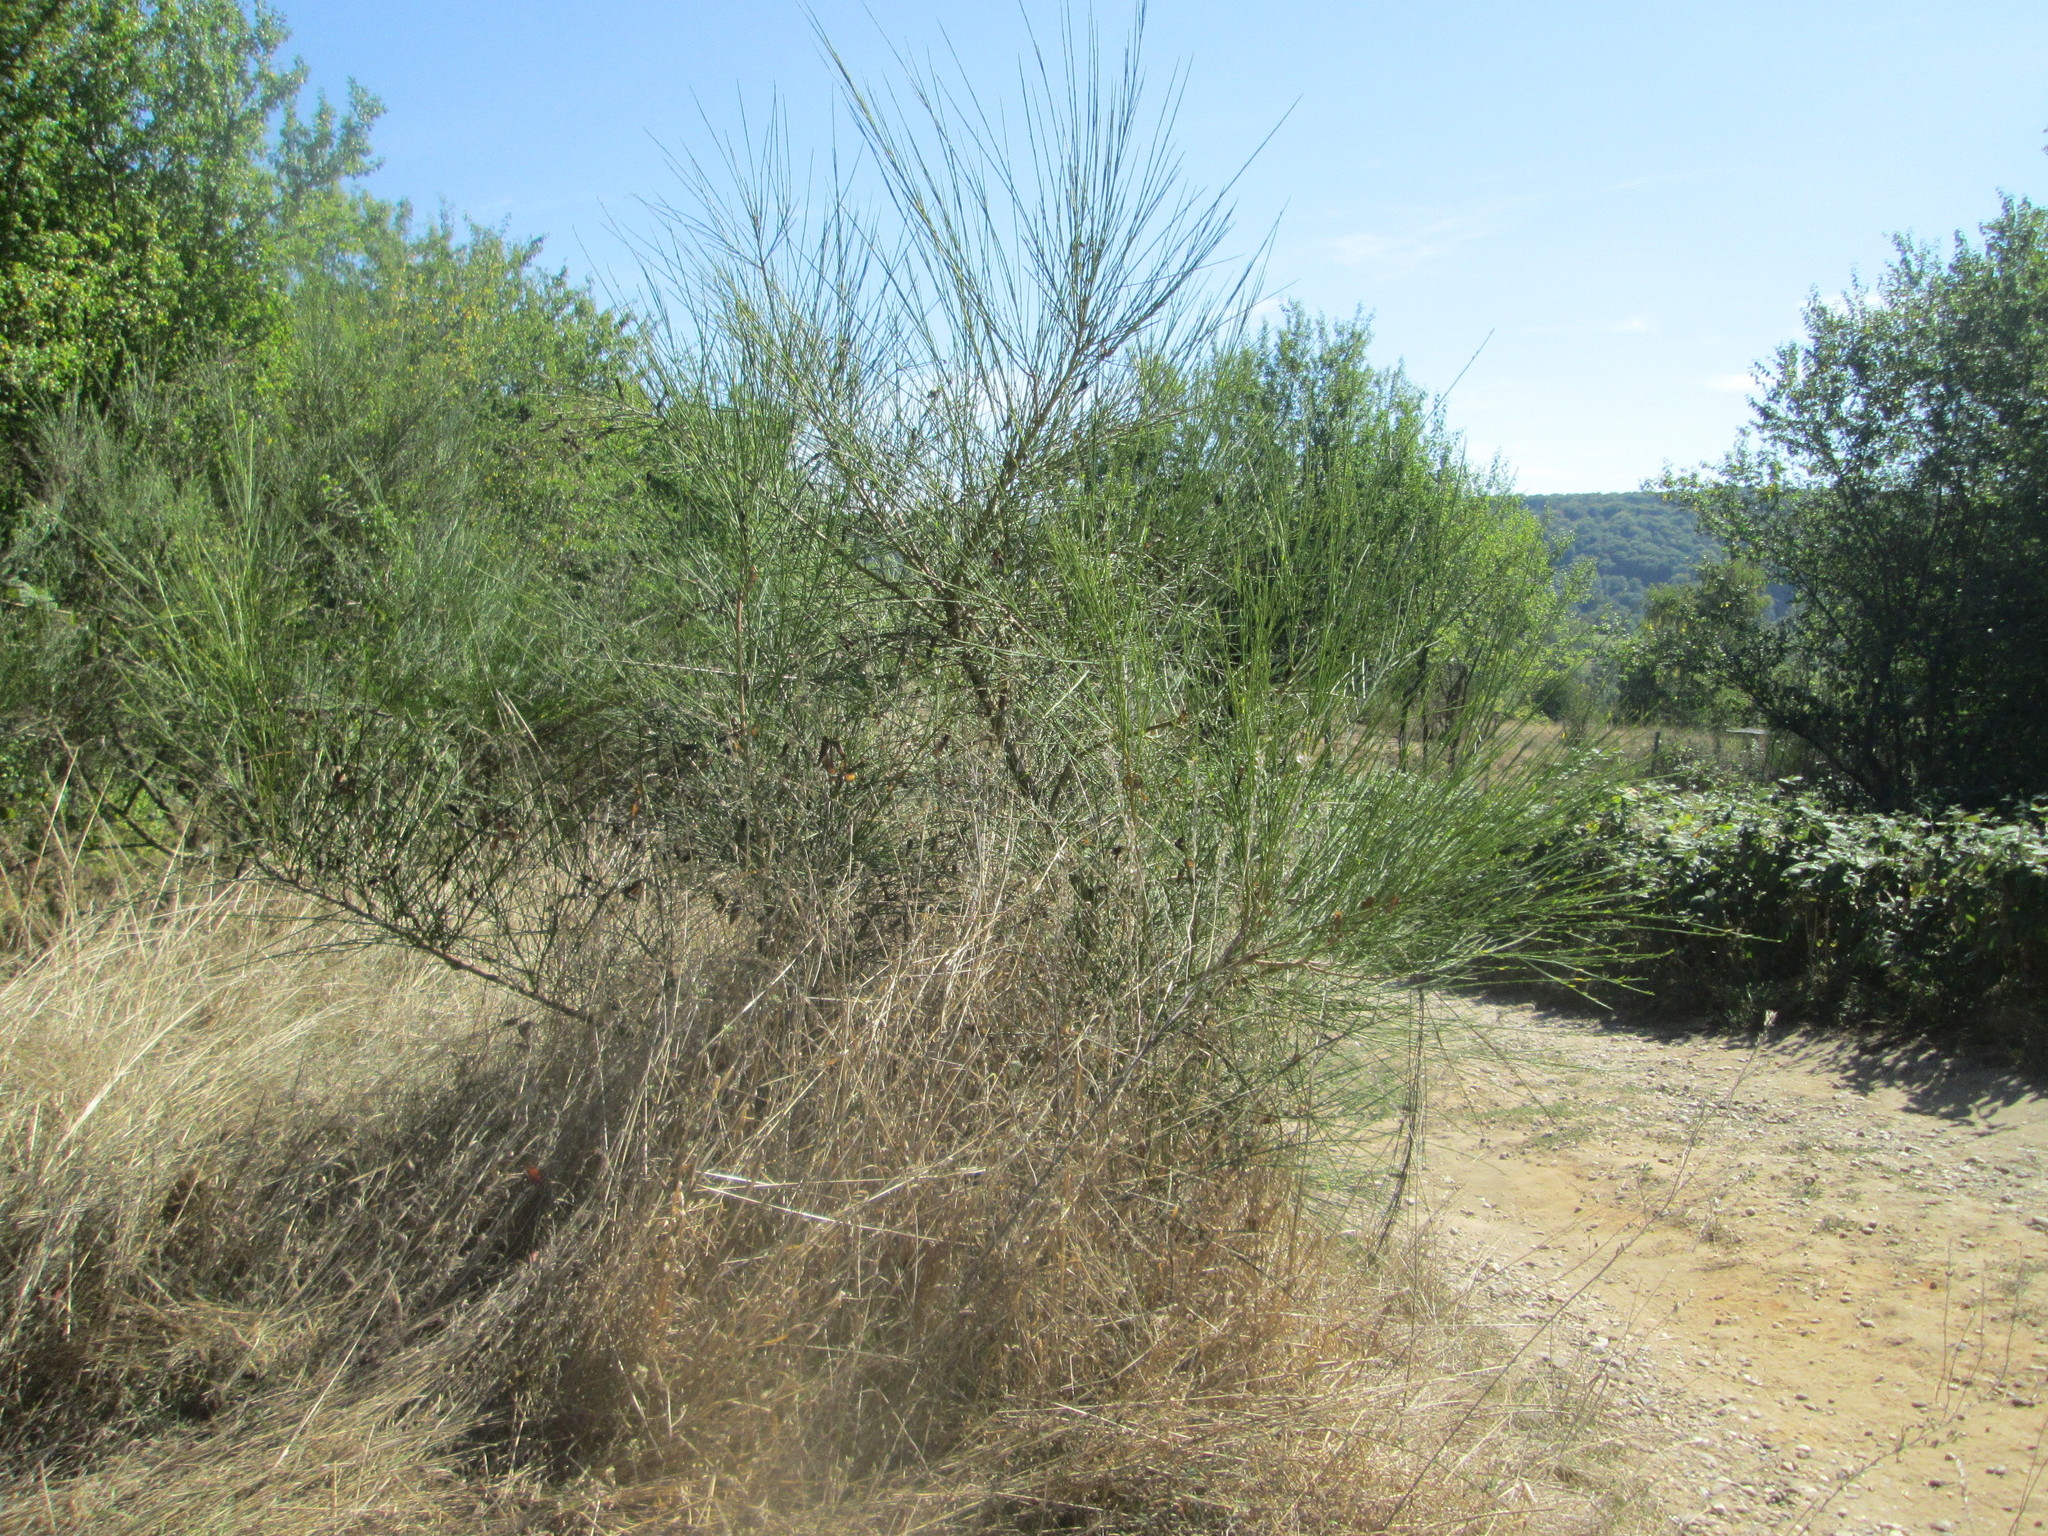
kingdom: Plantae
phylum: Tracheophyta
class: Magnoliopsida
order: Fabales
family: Fabaceae
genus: Cytisus
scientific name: Cytisus scoparius
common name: Scotch broom
